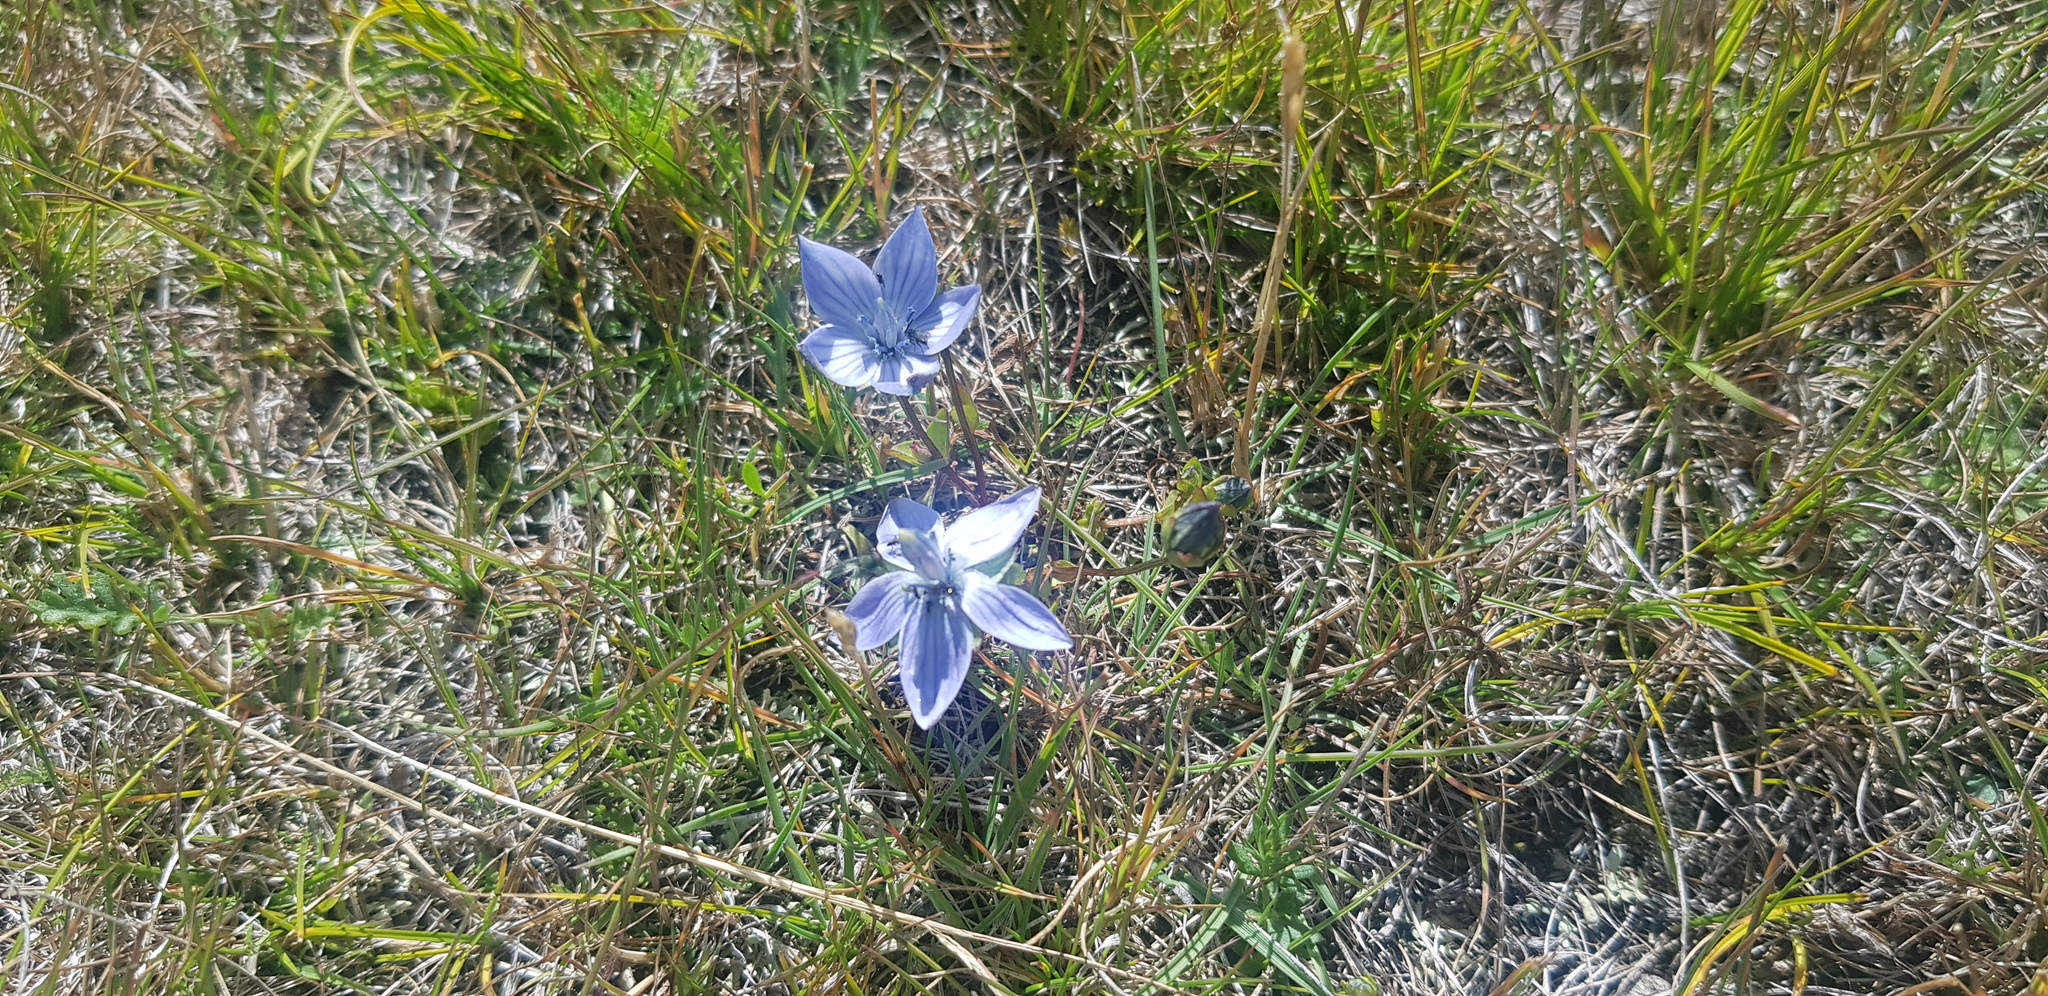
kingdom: Plantae
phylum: Tracheophyta
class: Magnoliopsida
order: Gentianales
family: Gentianaceae
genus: Lomatogonium
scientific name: Lomatogonium carinthiacum
